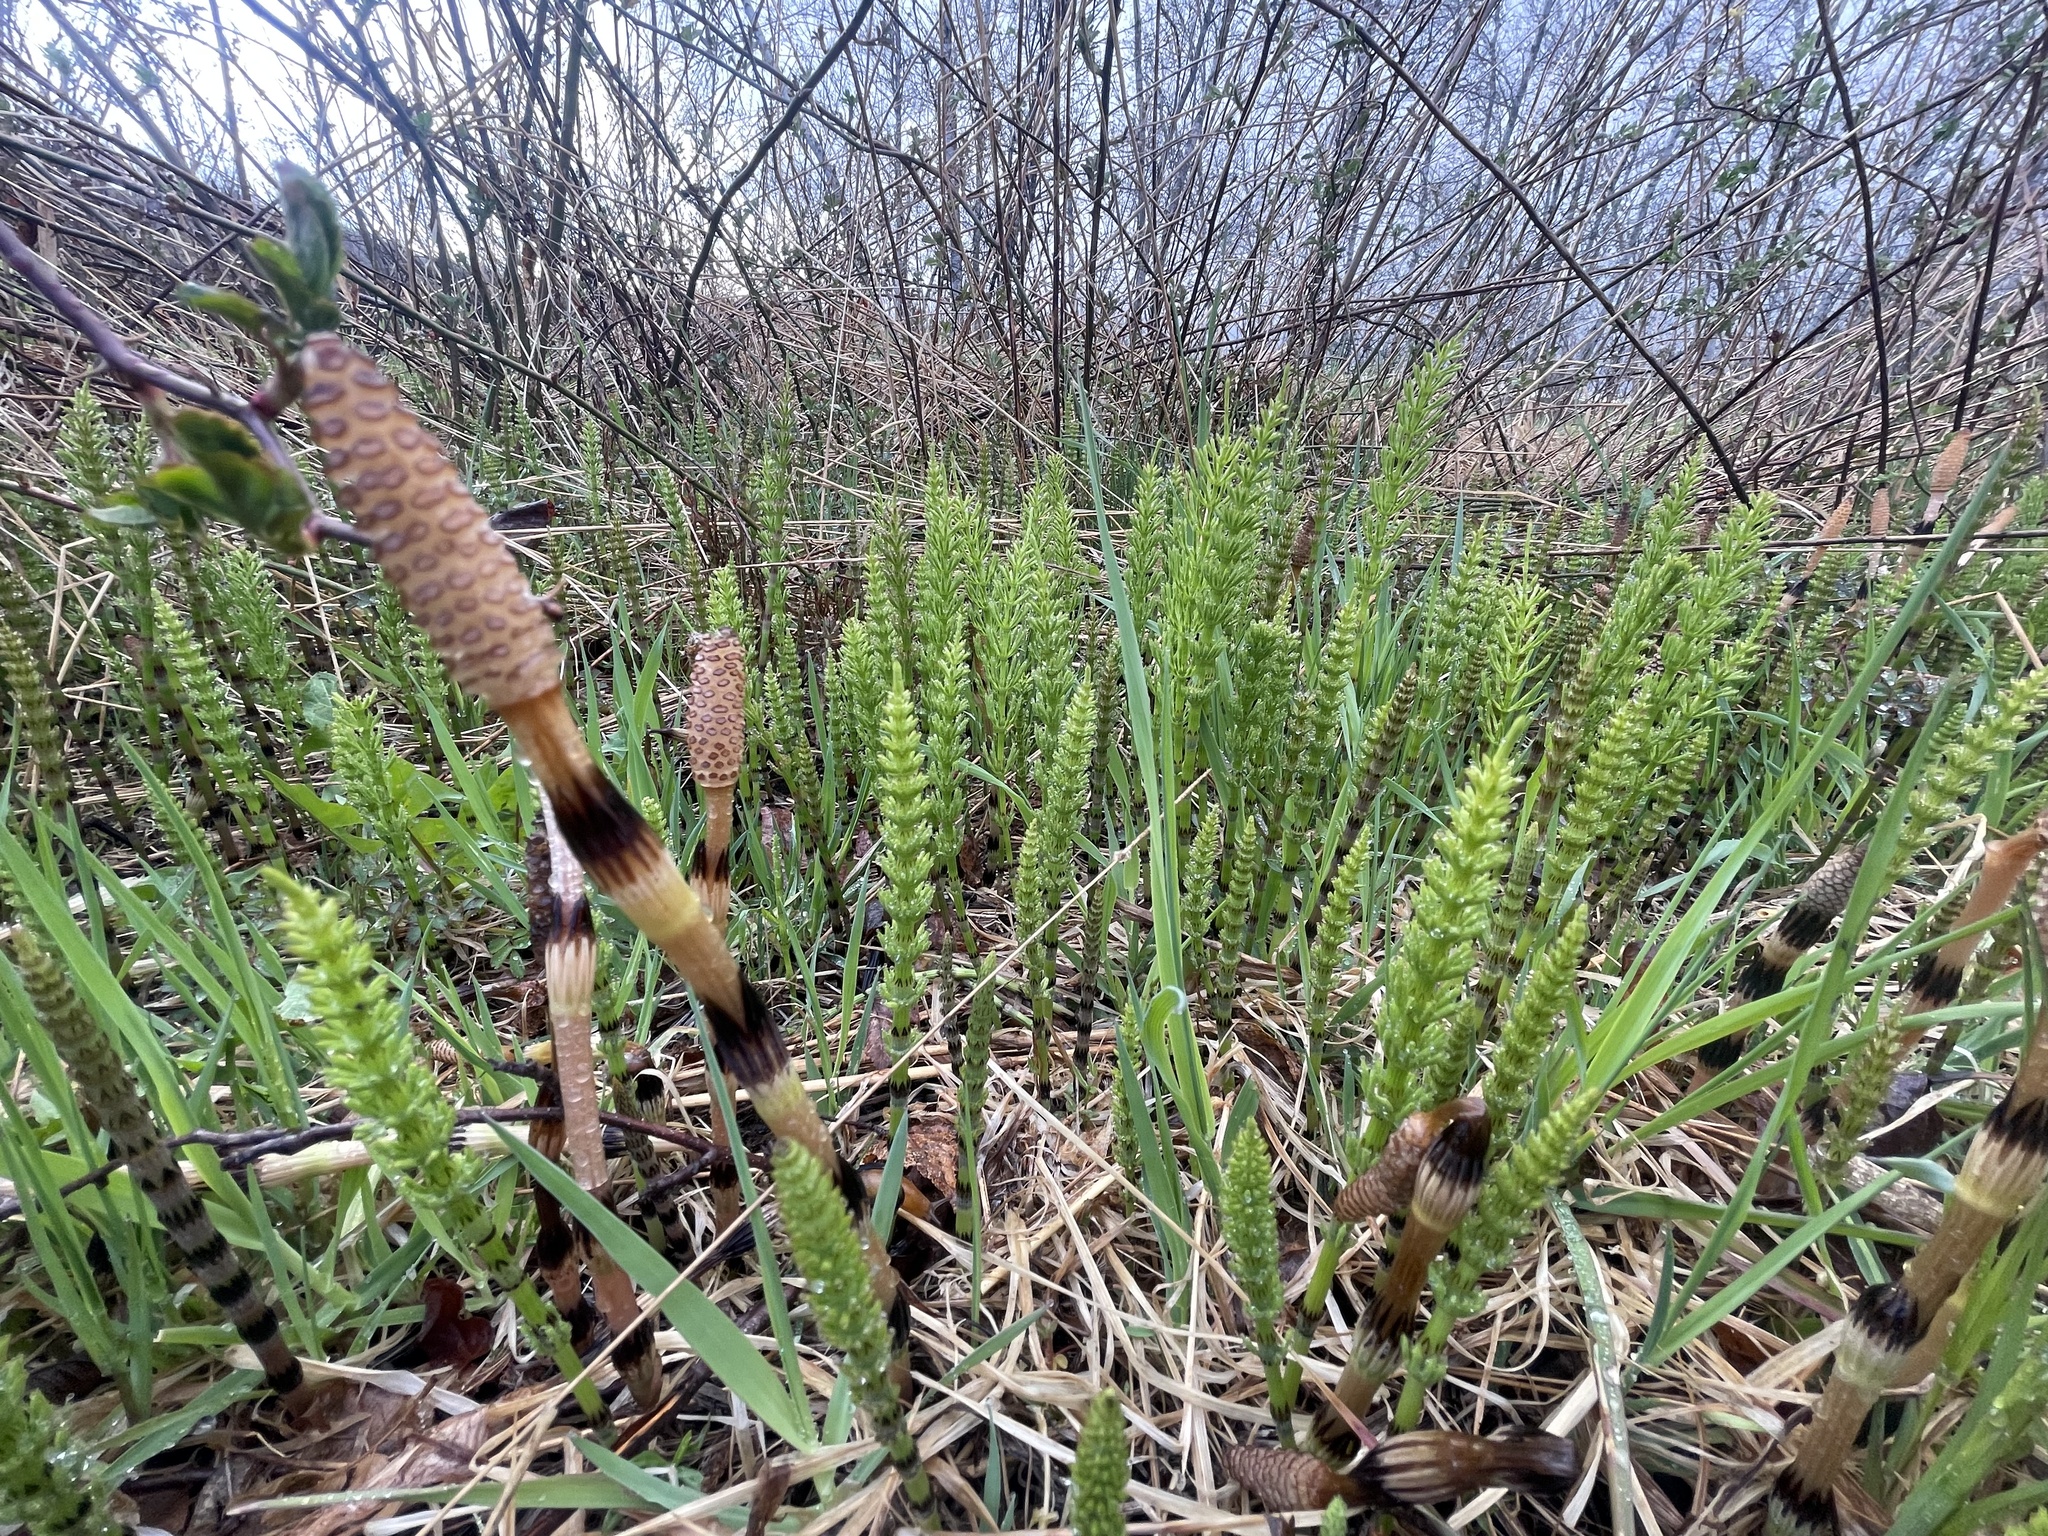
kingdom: Plantae
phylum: Tracheophyta
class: Polypodiopsida
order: Equisetales
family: Equisetaceae
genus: Equisetum
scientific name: Equisetum arvense
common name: Field horsetail
